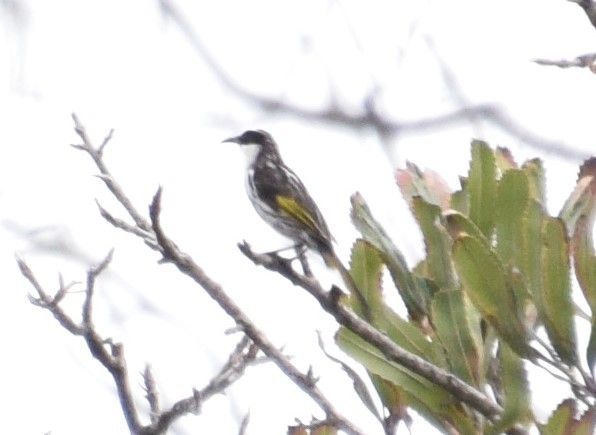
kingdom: Animalia
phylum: Chordata
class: Aves
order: Passeriformes
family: Meliphagidae
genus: Phylidonyris
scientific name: Phylidonyris niger
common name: White-cheeked honeyeater
